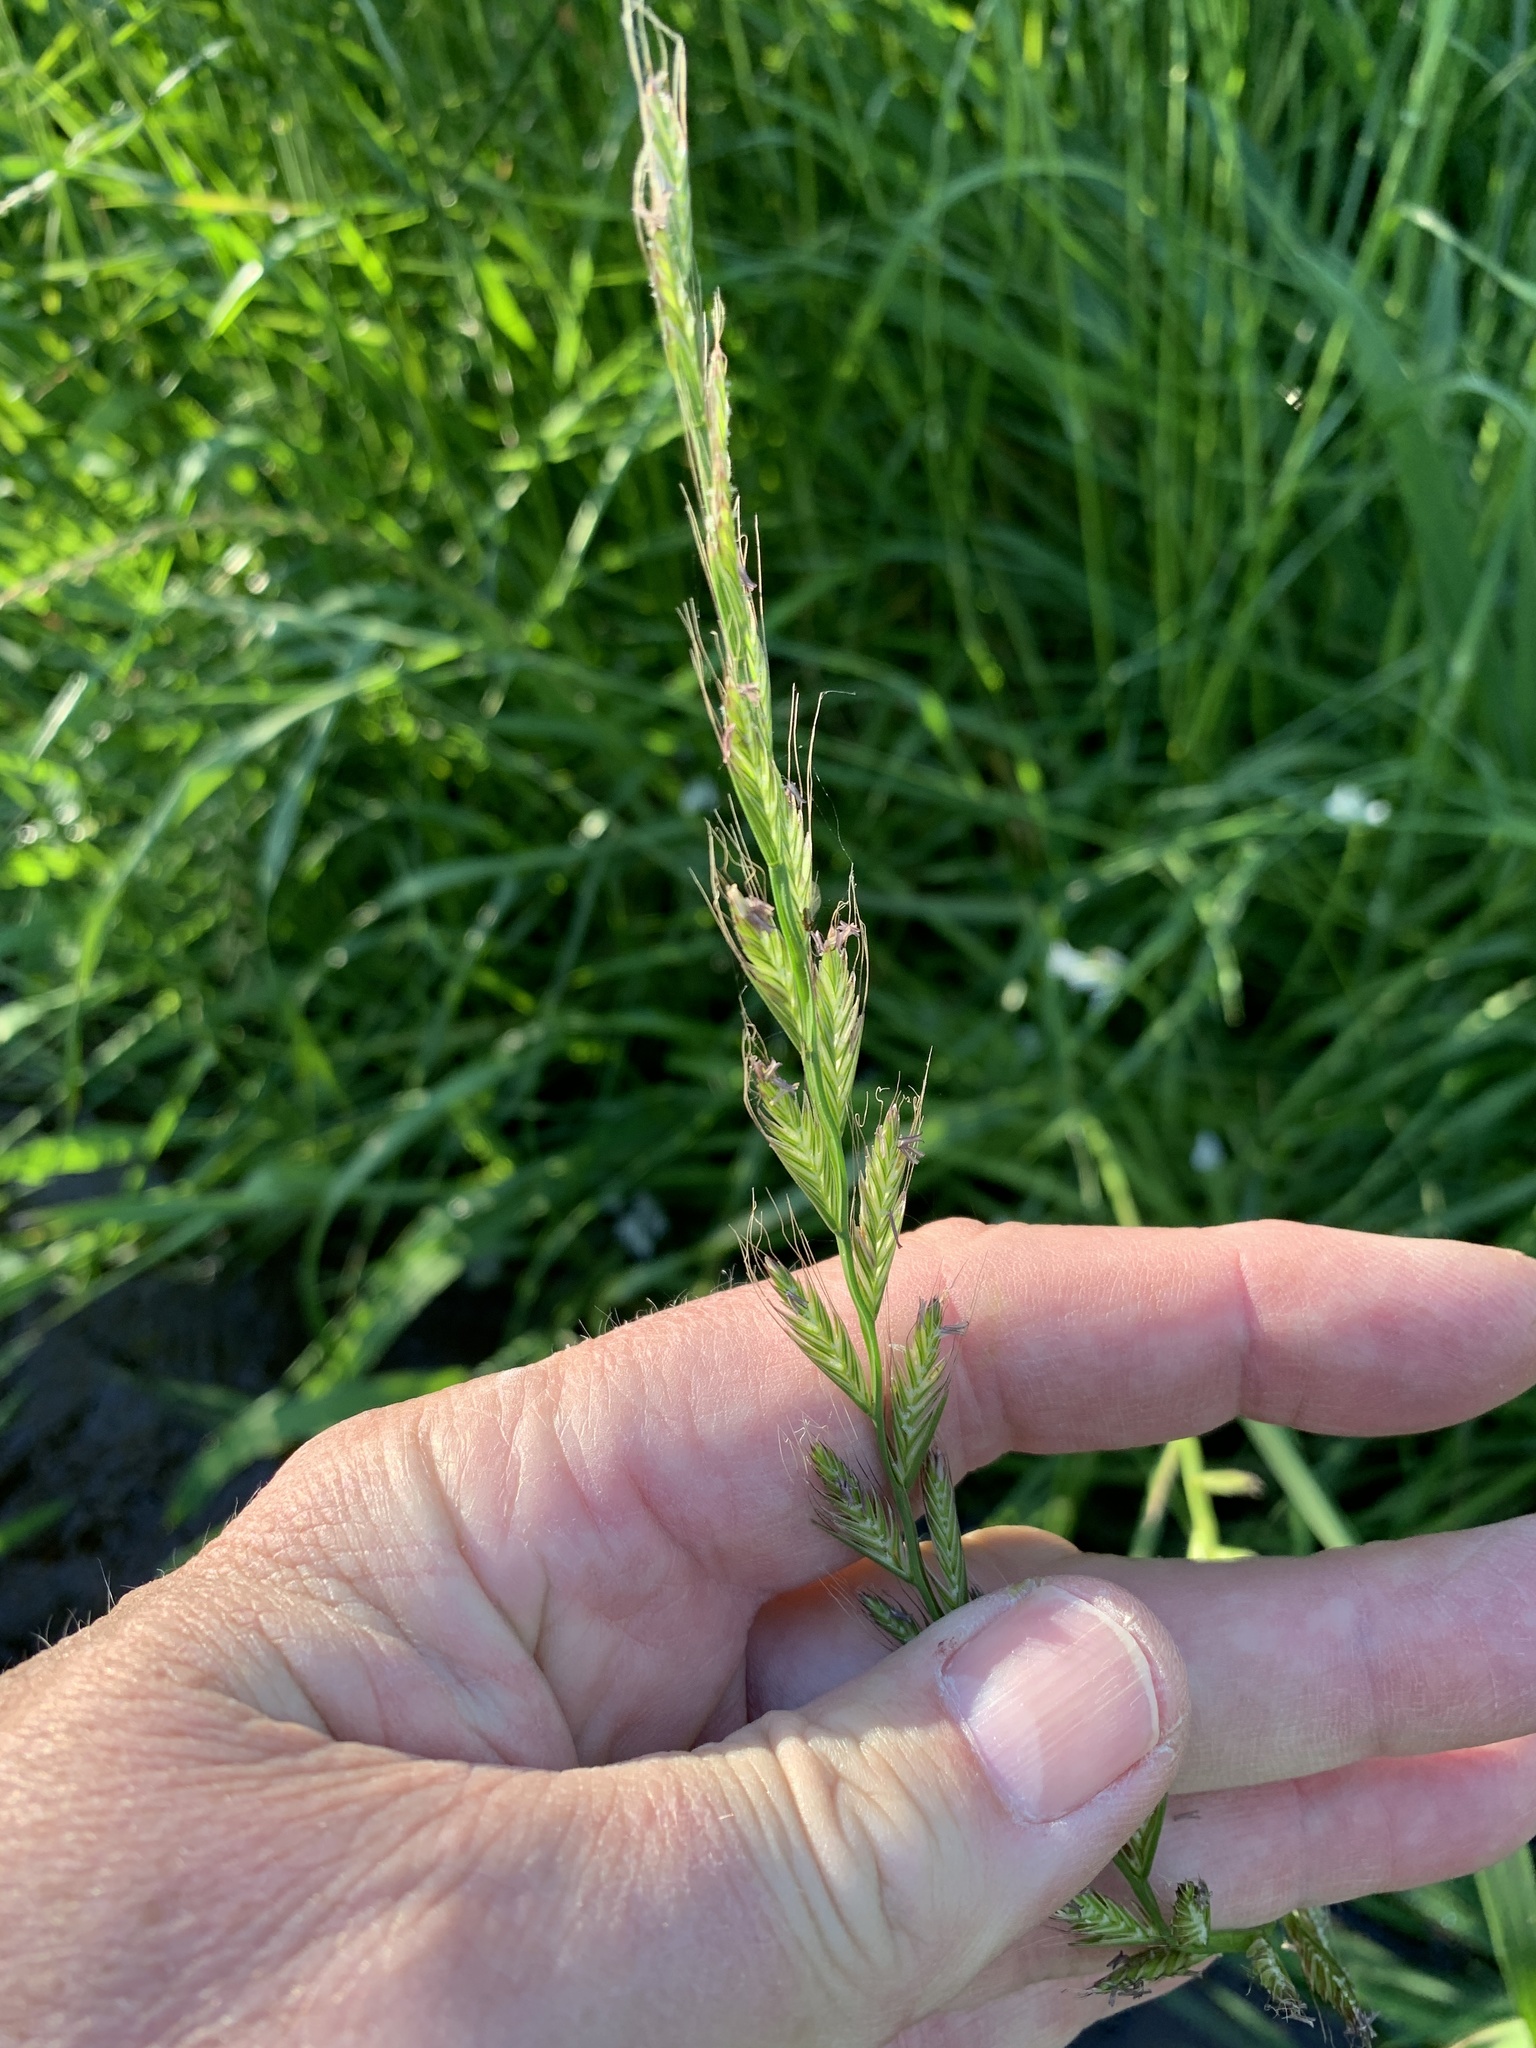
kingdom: Plantae
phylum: Tracheophyta
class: Liliopsida
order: Poales
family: Poaceae
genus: Lolium
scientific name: Lolium multiflorum
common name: Annual ryegrass
